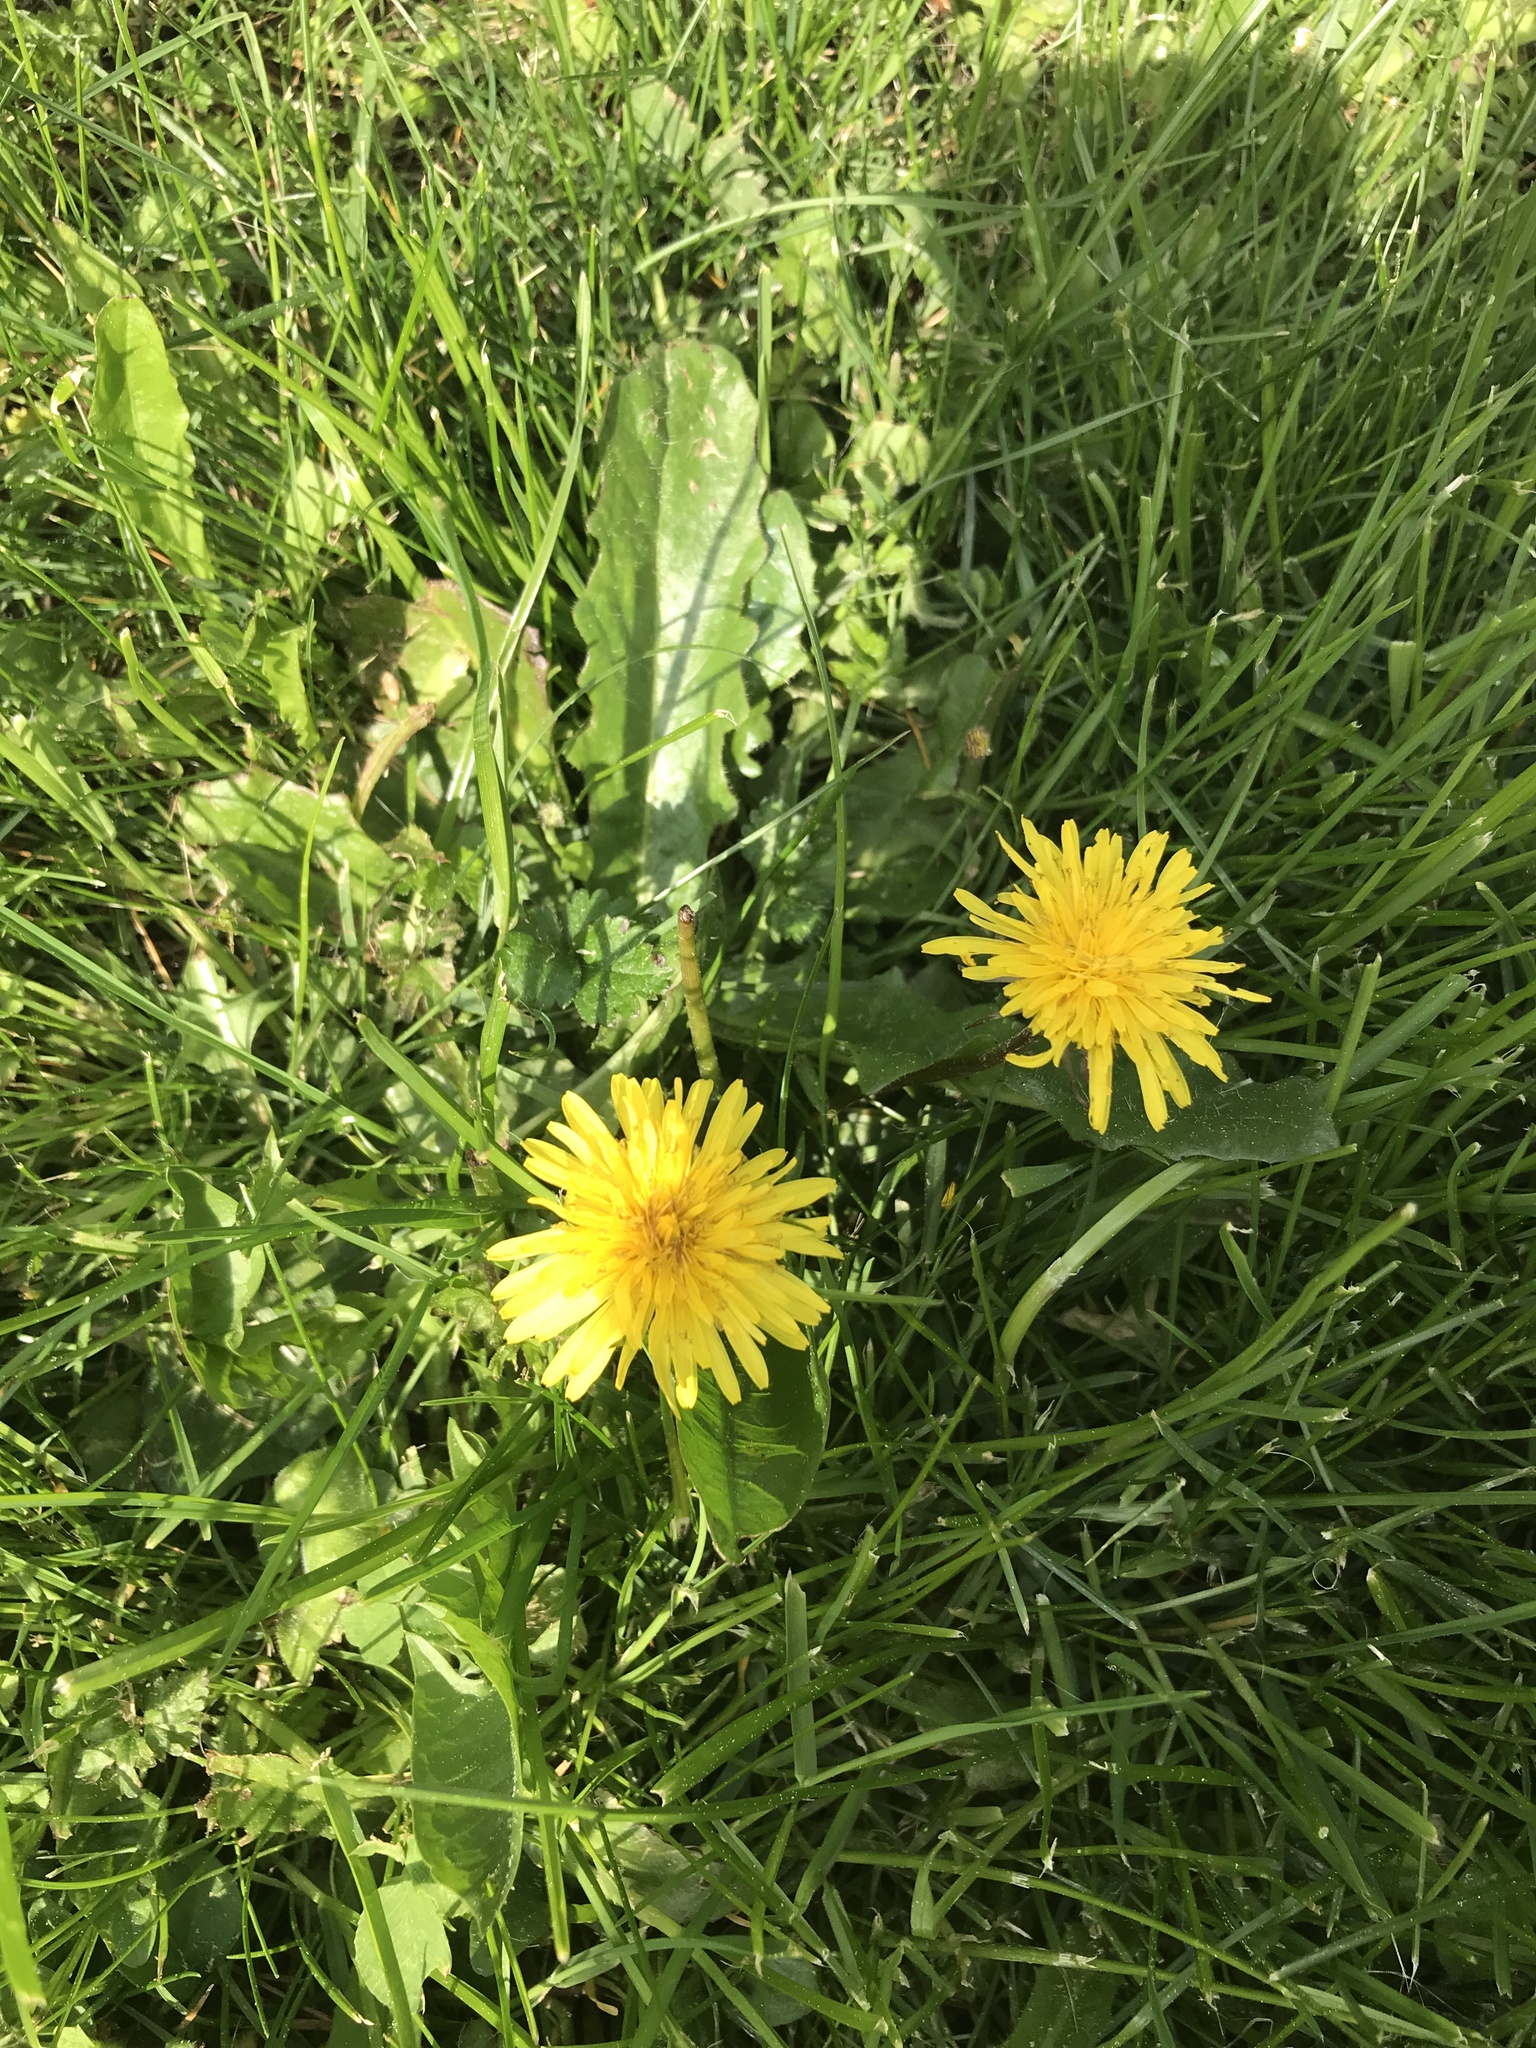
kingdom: Plantae
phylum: Tracheophyta
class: Magnoliopsida
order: Asterales
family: Asteraceae
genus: Taraxacum
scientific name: Taraxacum officinale
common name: Common dandelion
